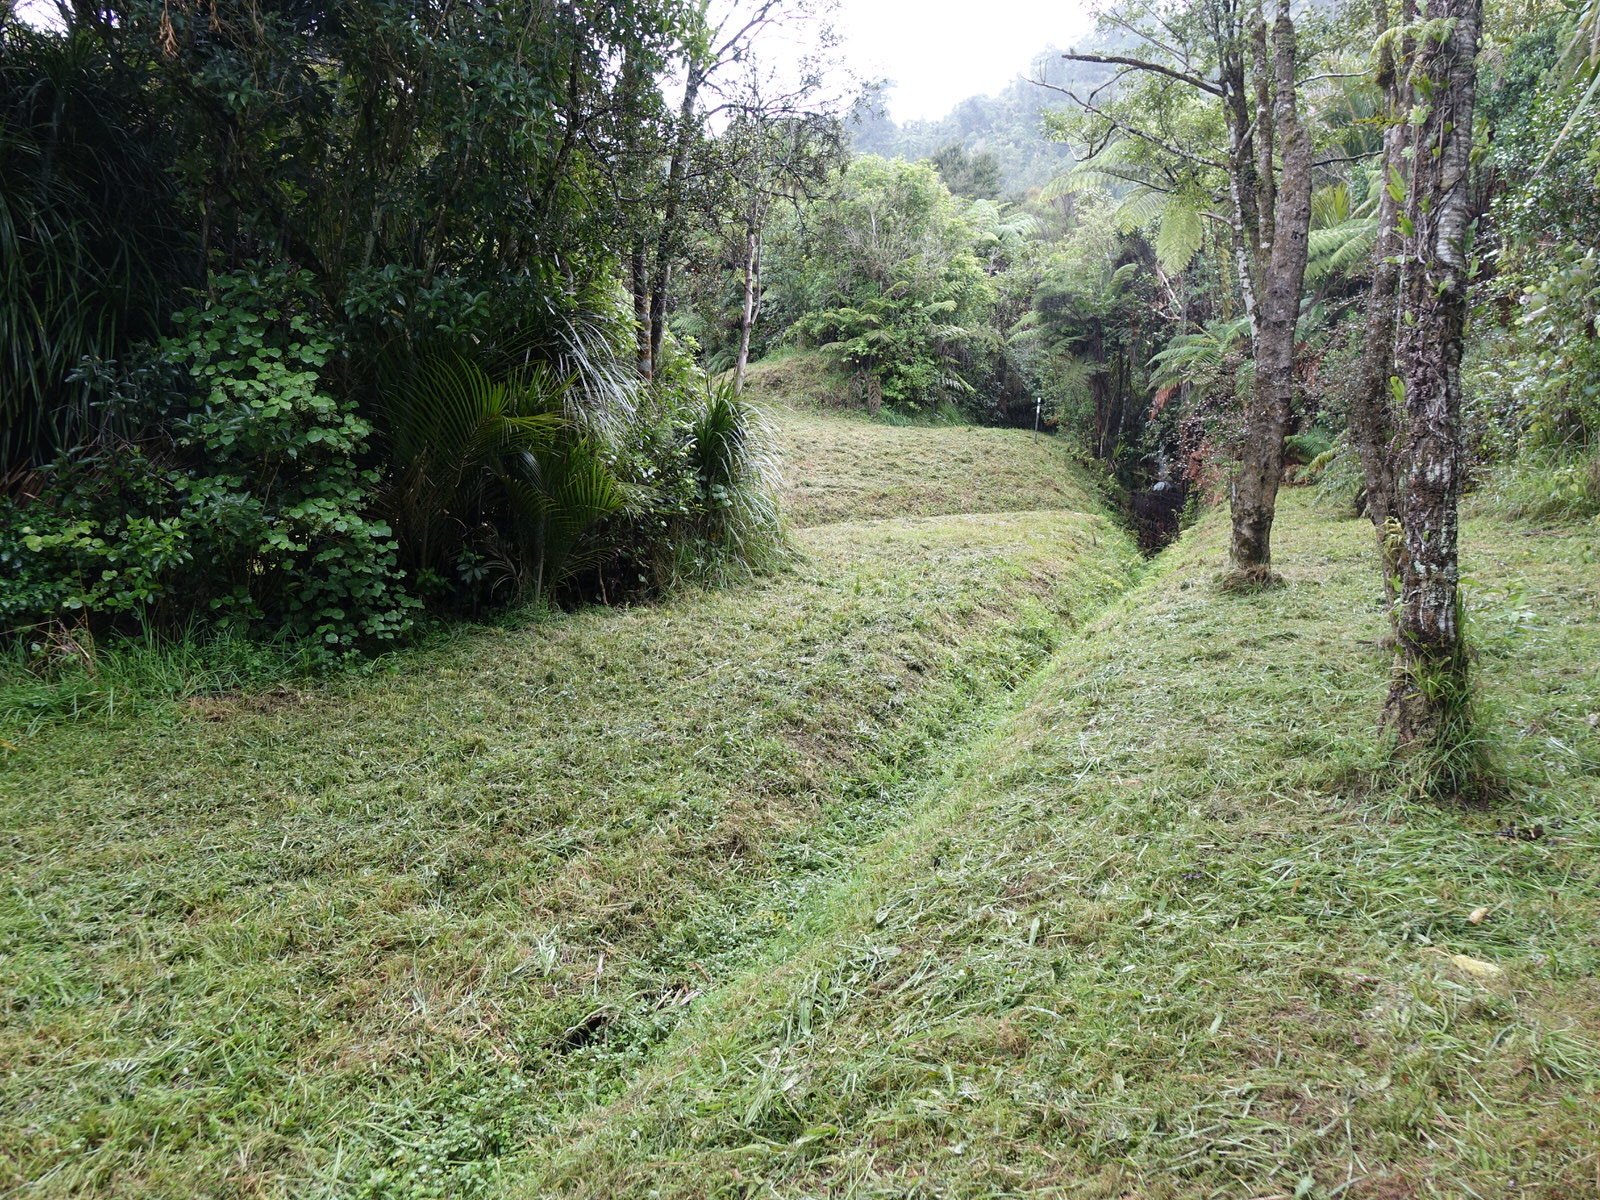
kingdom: Plantae
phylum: Tracheophyta
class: Magnoliopsida
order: Brassicales
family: Brassicaceae
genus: Nasturtium
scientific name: Nasturtium officinale
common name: Watercress
